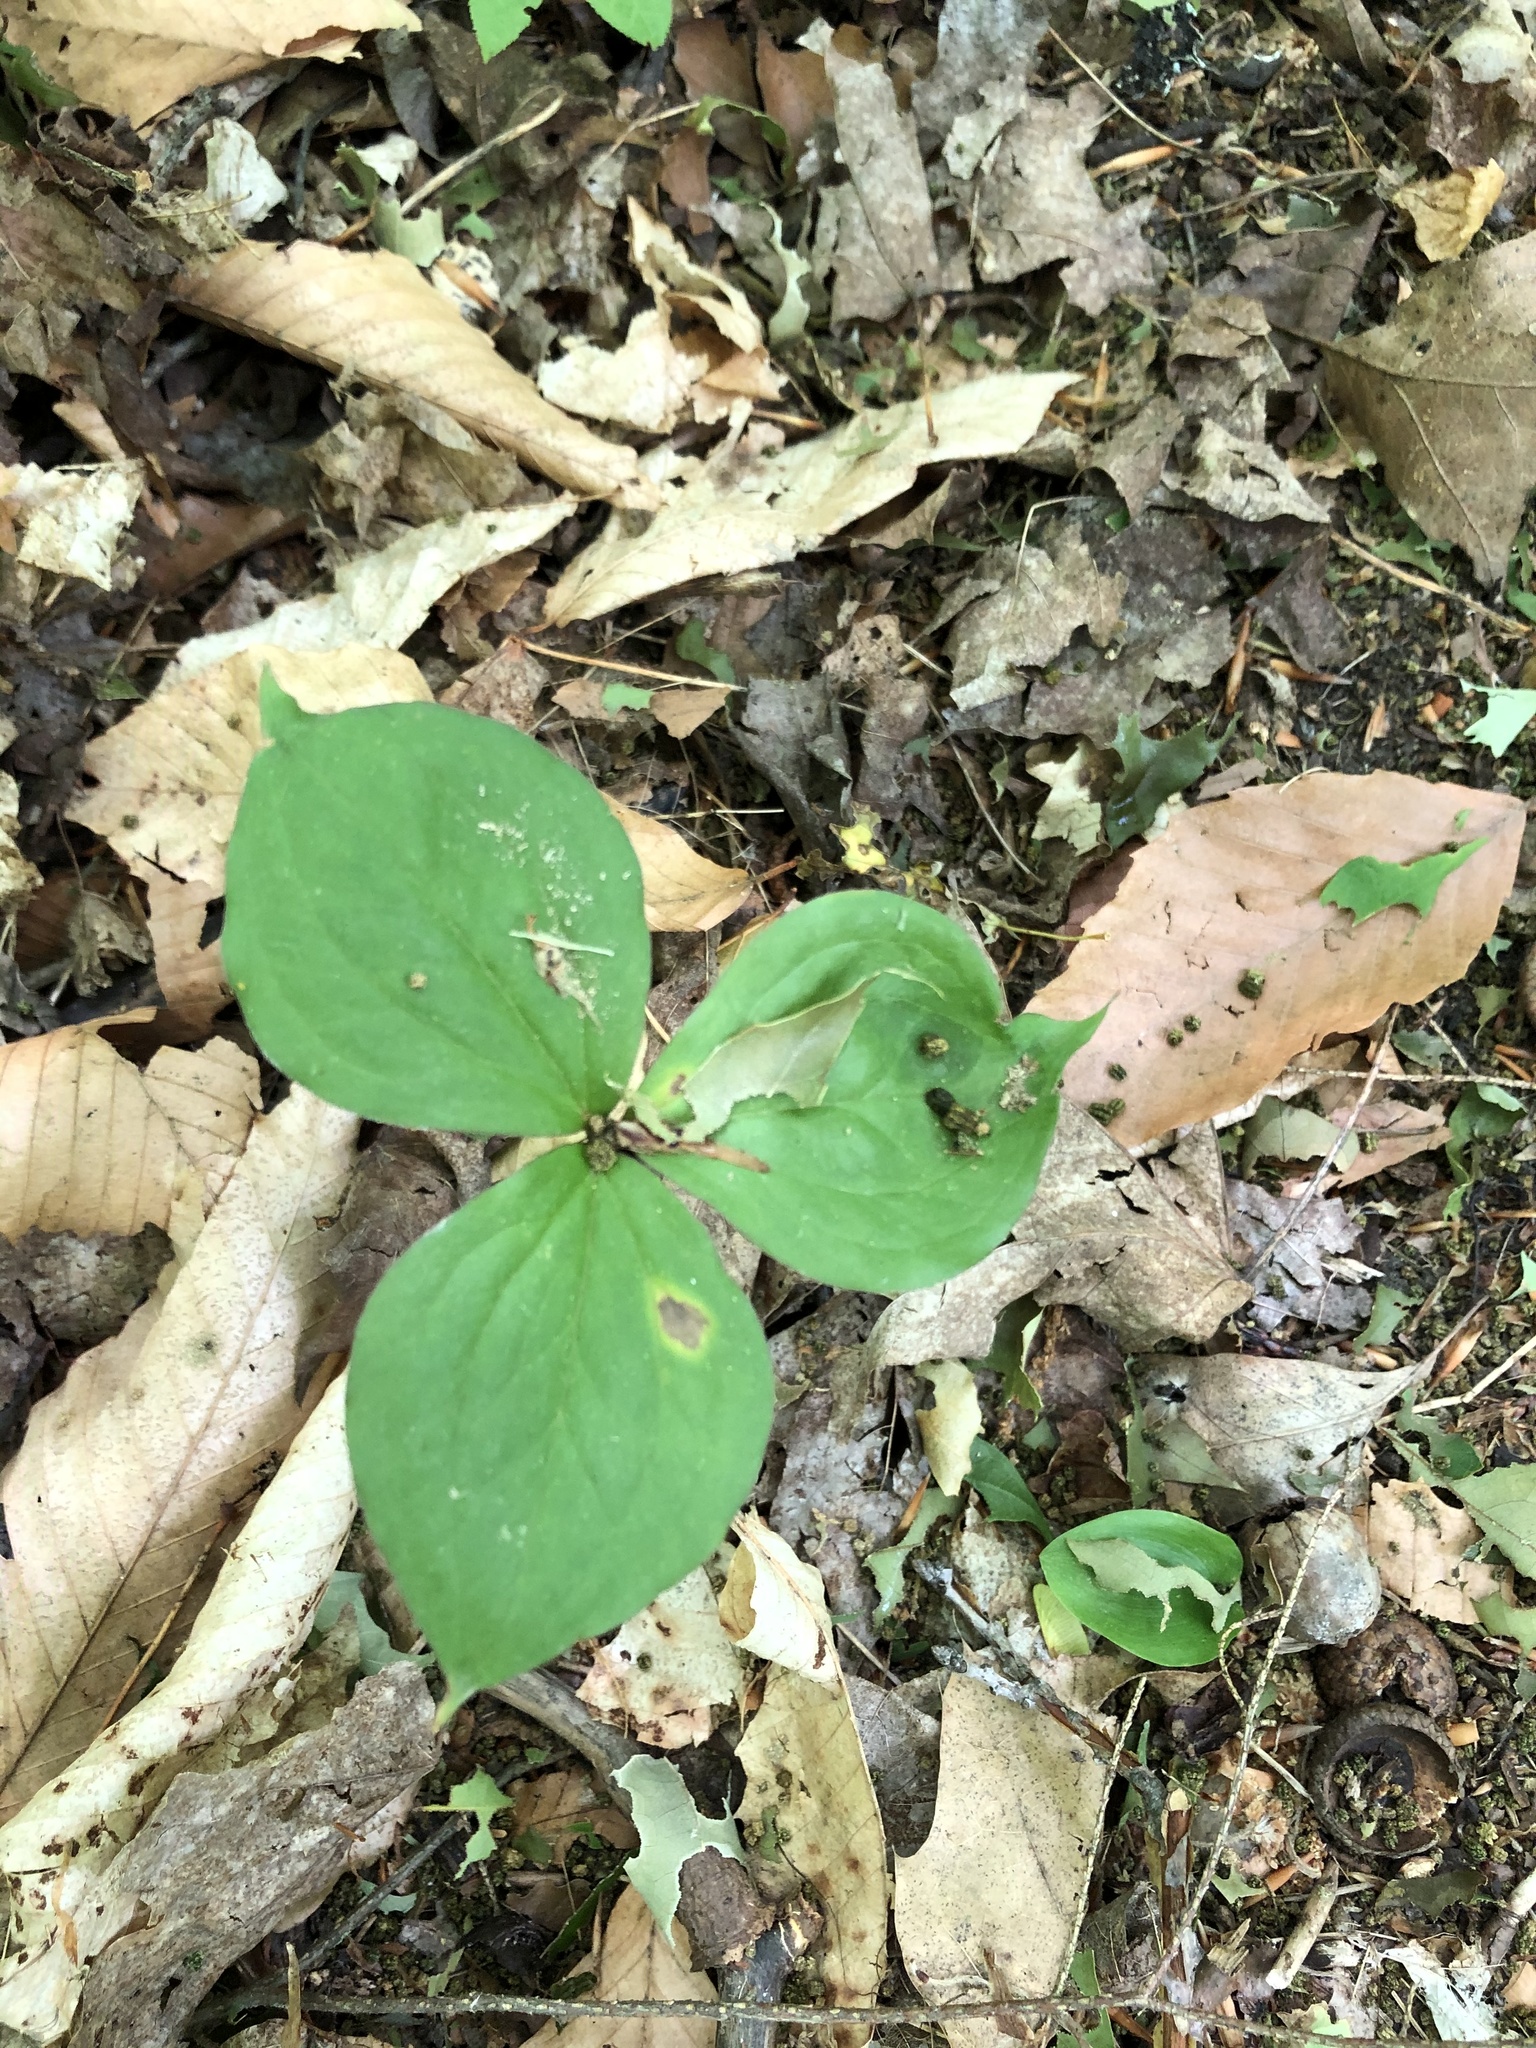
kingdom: Plantae
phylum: Tracheophyta
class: Liliopsida
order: Liliales
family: Melanthiaceae
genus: Trillium
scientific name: Trillium grandiflorum
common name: Great white trillium
